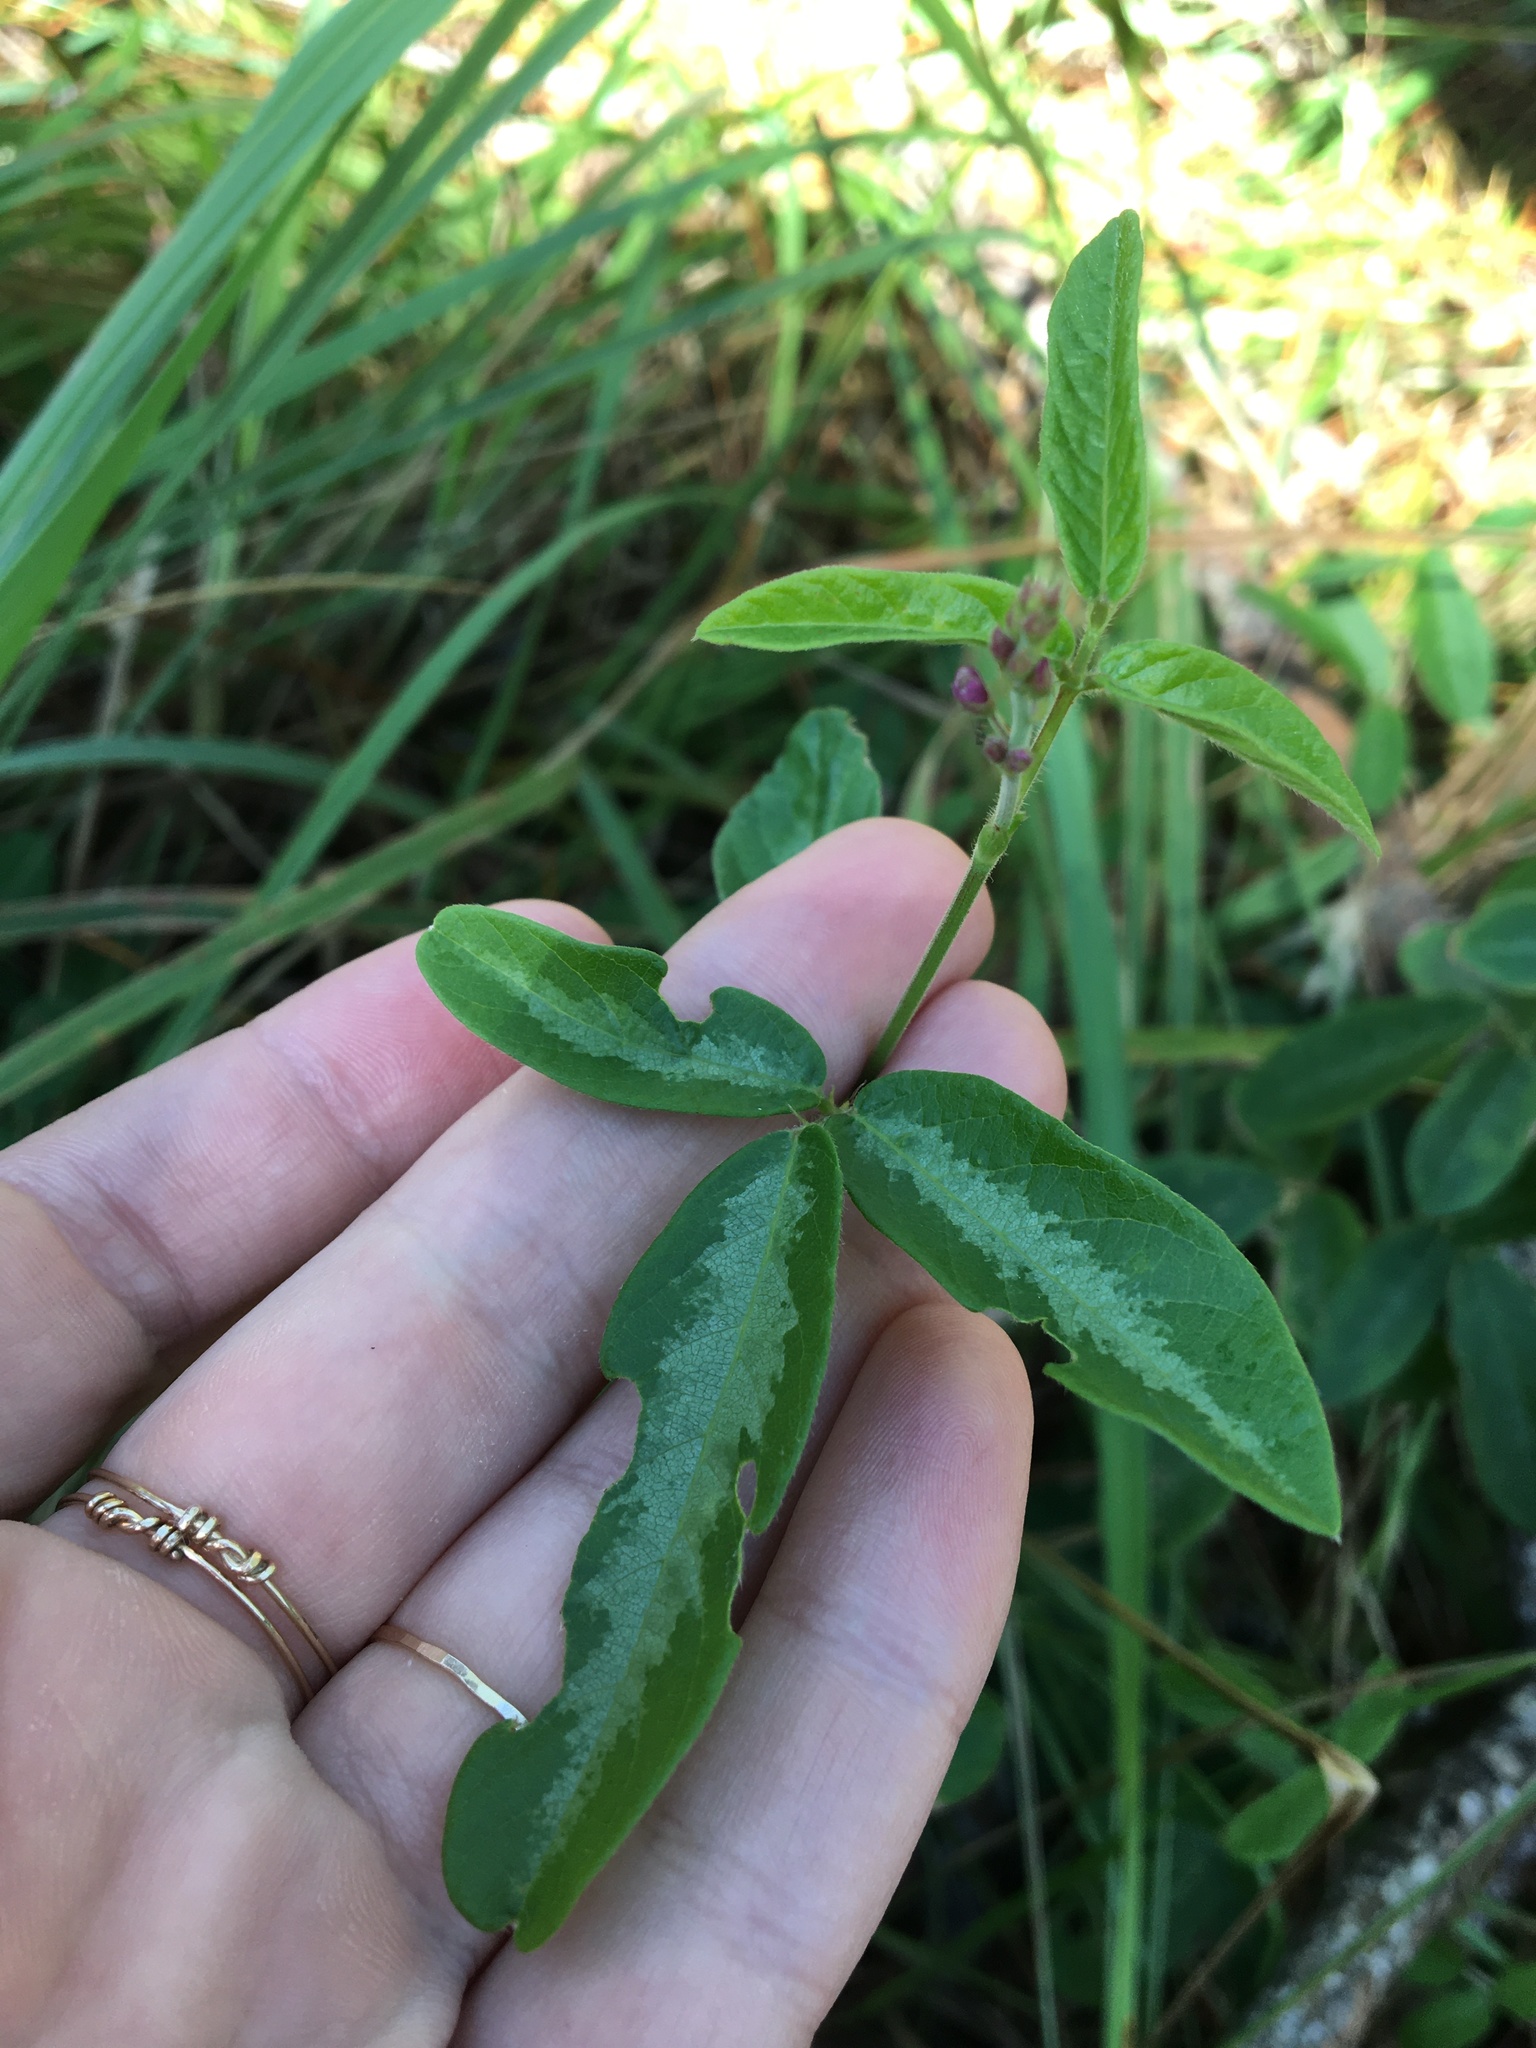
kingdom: Plantae
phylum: Tracheophyta
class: Magnoliopsida
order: Fabales
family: Fabaceae
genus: Desmodium
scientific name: Desmodium incanum
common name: Tickclover
